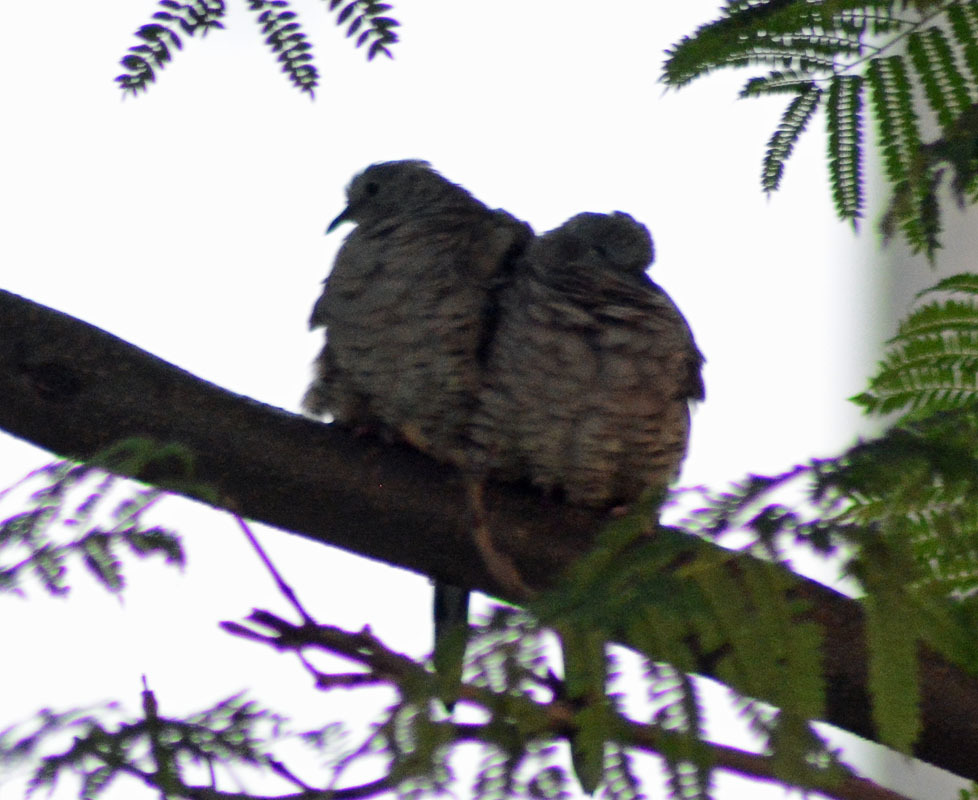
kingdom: Animalia
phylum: Chordata
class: Aves
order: Columbiformes
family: Columbidae
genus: Columbina
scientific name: Columbina inca
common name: Inca dove
